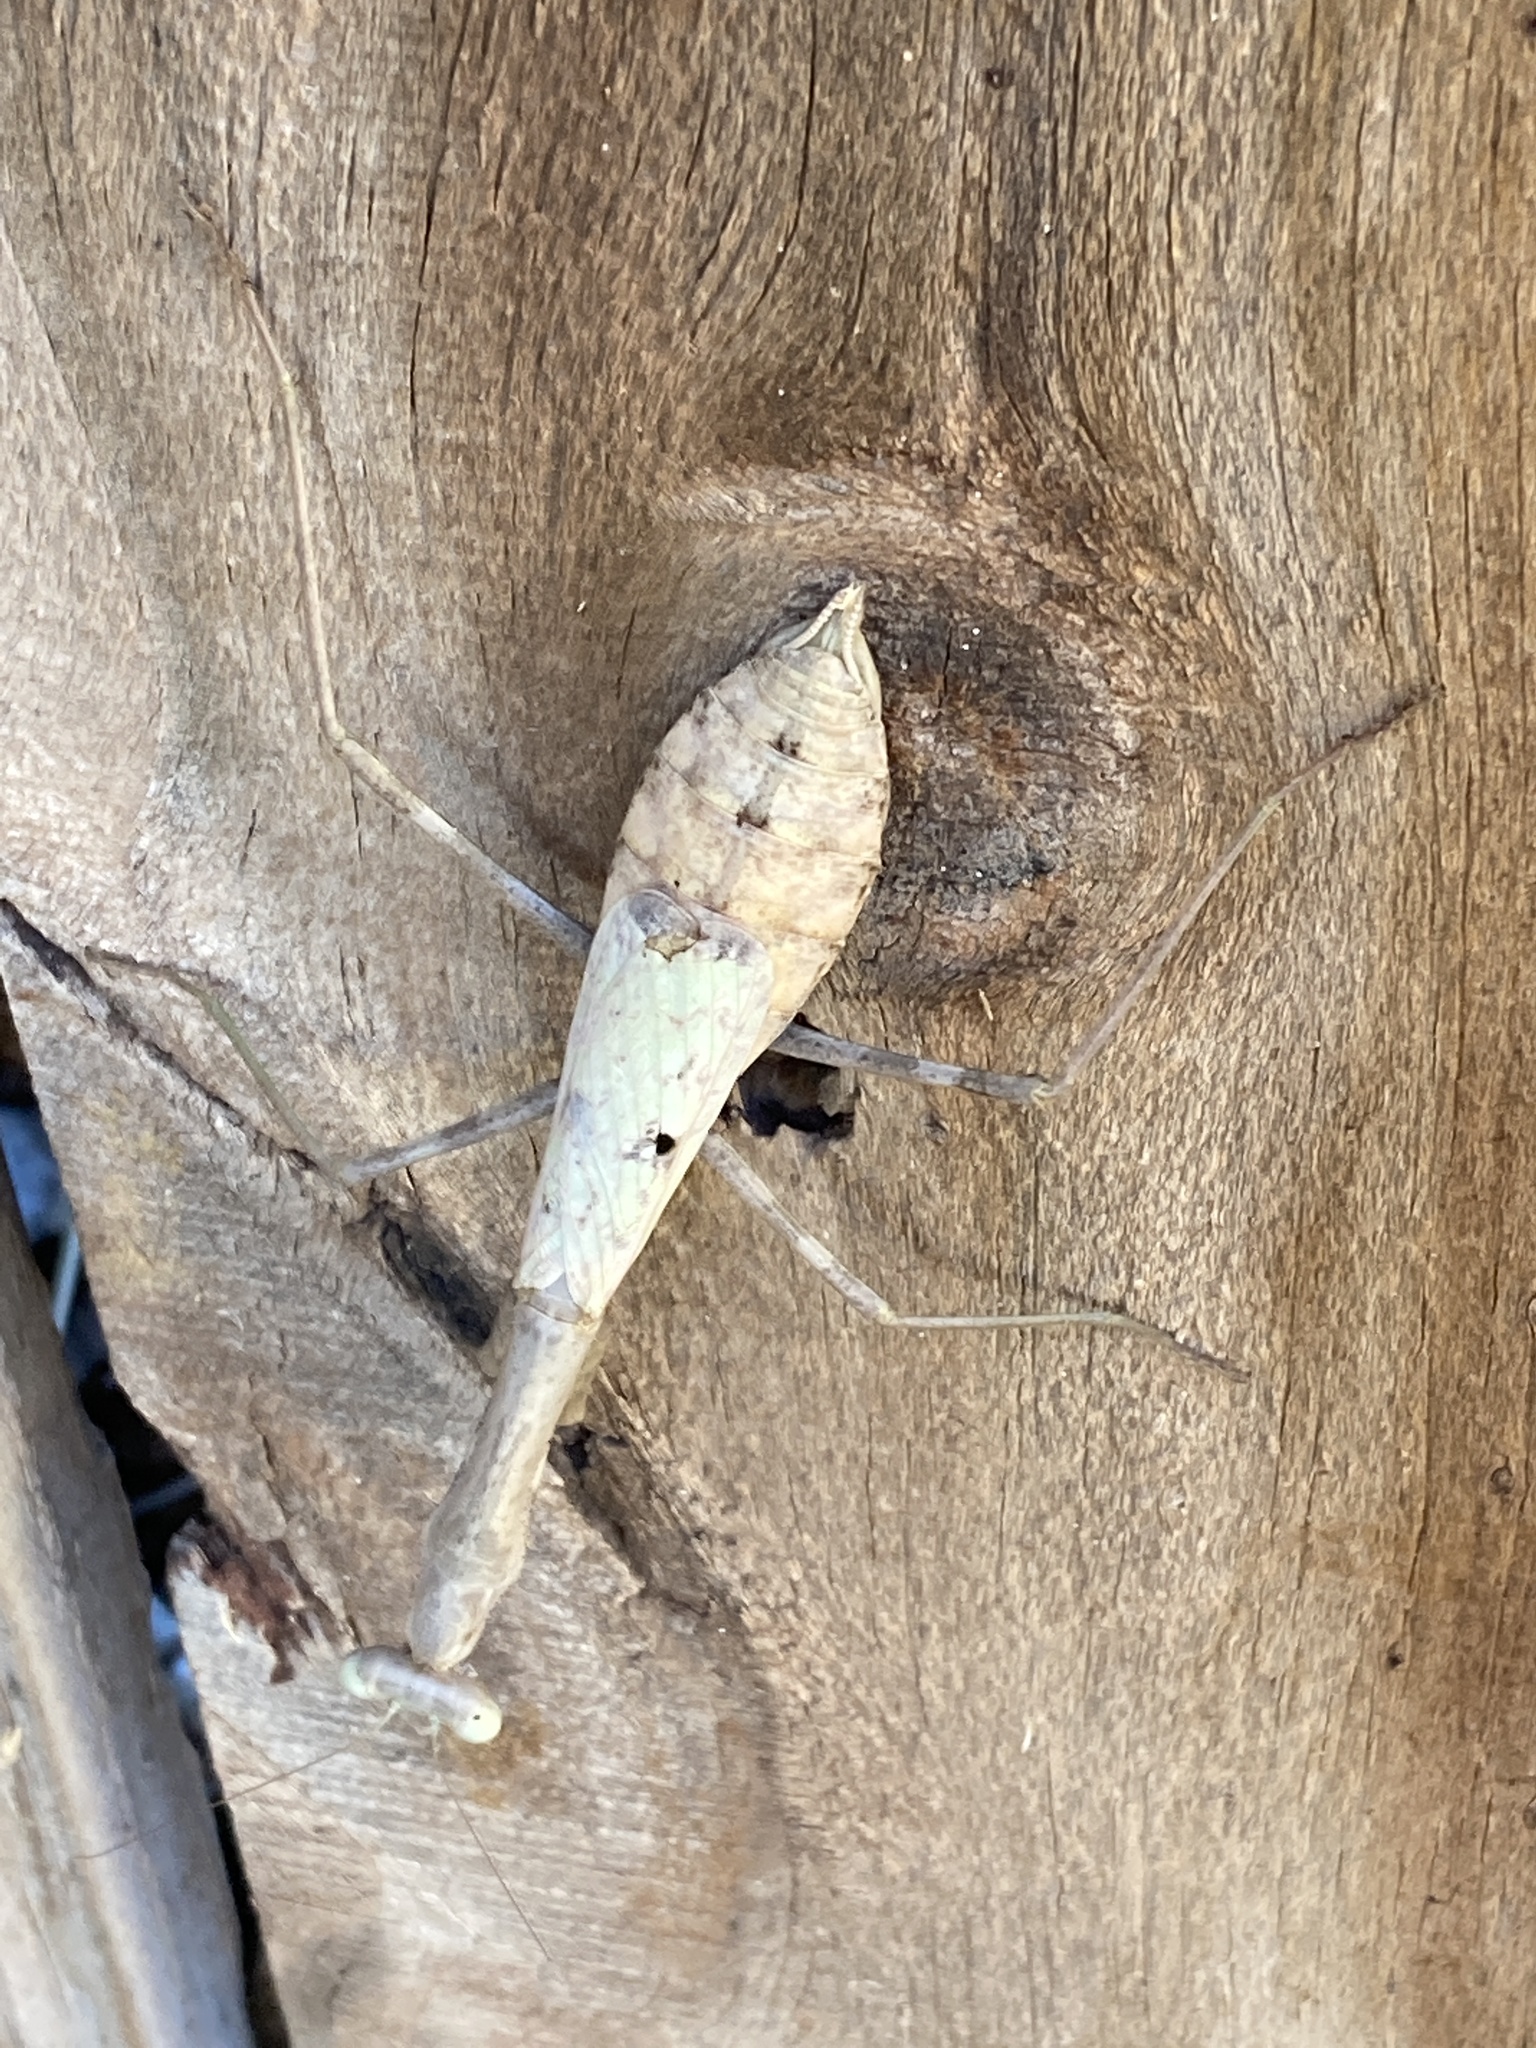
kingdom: Animalia
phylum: Arthropoda
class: Insecta
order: Mantodea
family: Mantidae
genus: Stagmomantis
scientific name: Stagmomantis carolina
